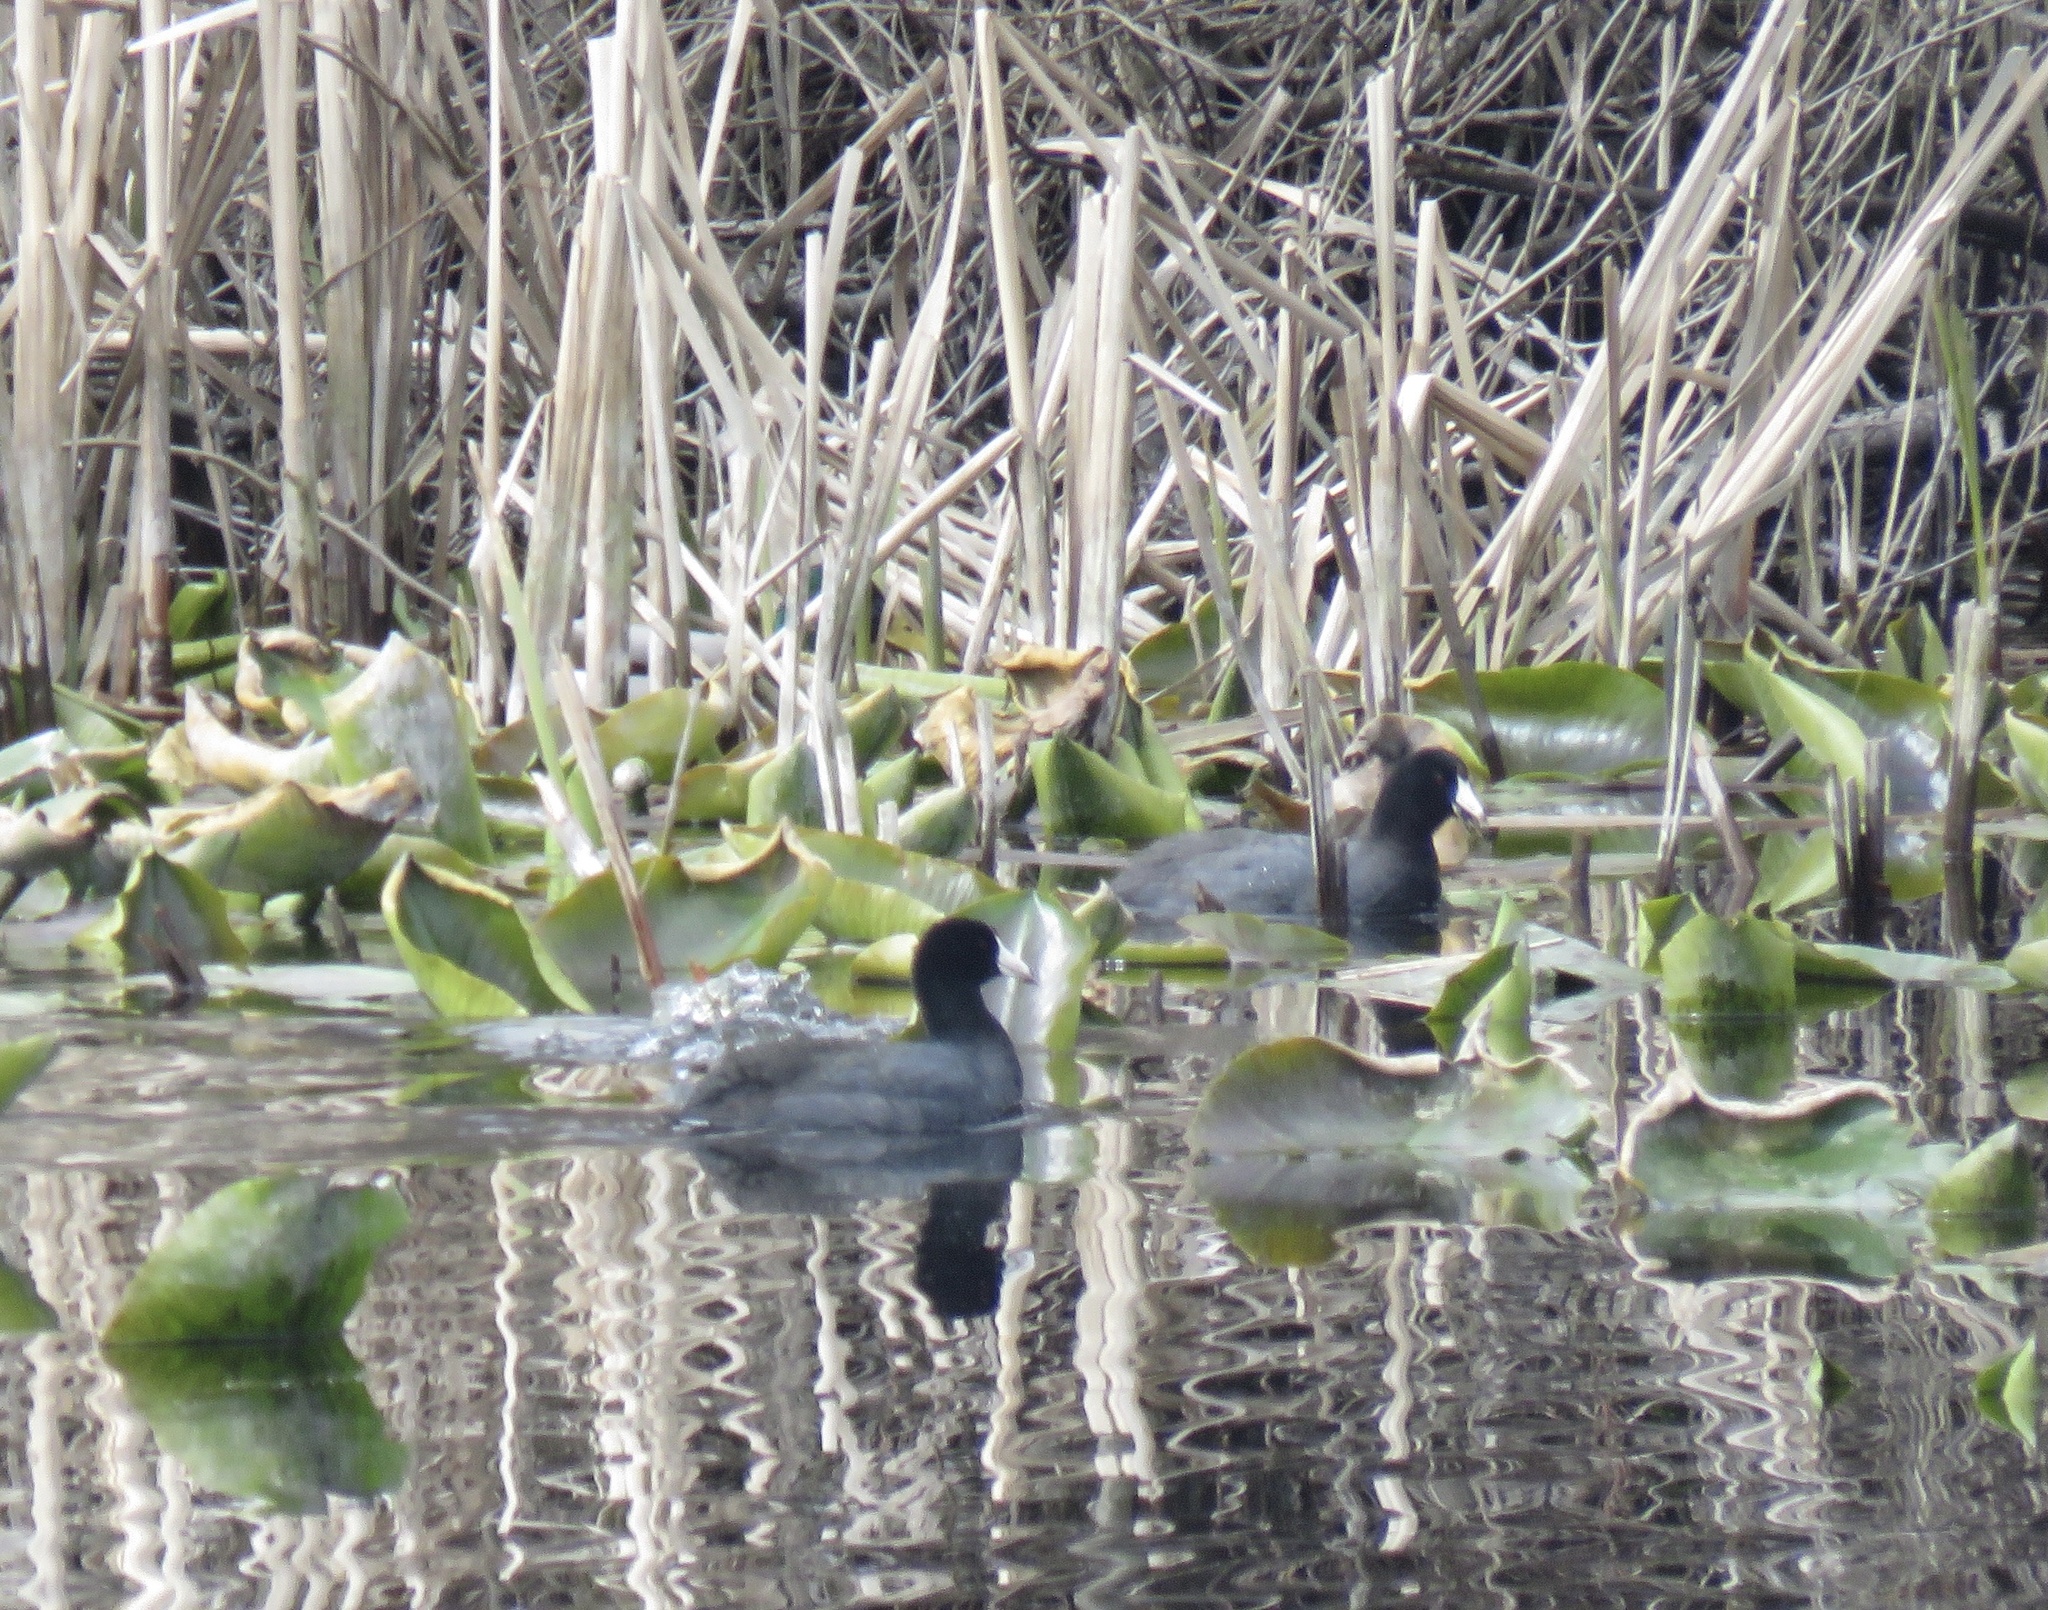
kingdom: Animalia
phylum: Chordata
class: Aves
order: Gruiformes
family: Rallidae
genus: Fulica
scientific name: Fulica americana
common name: American coot
